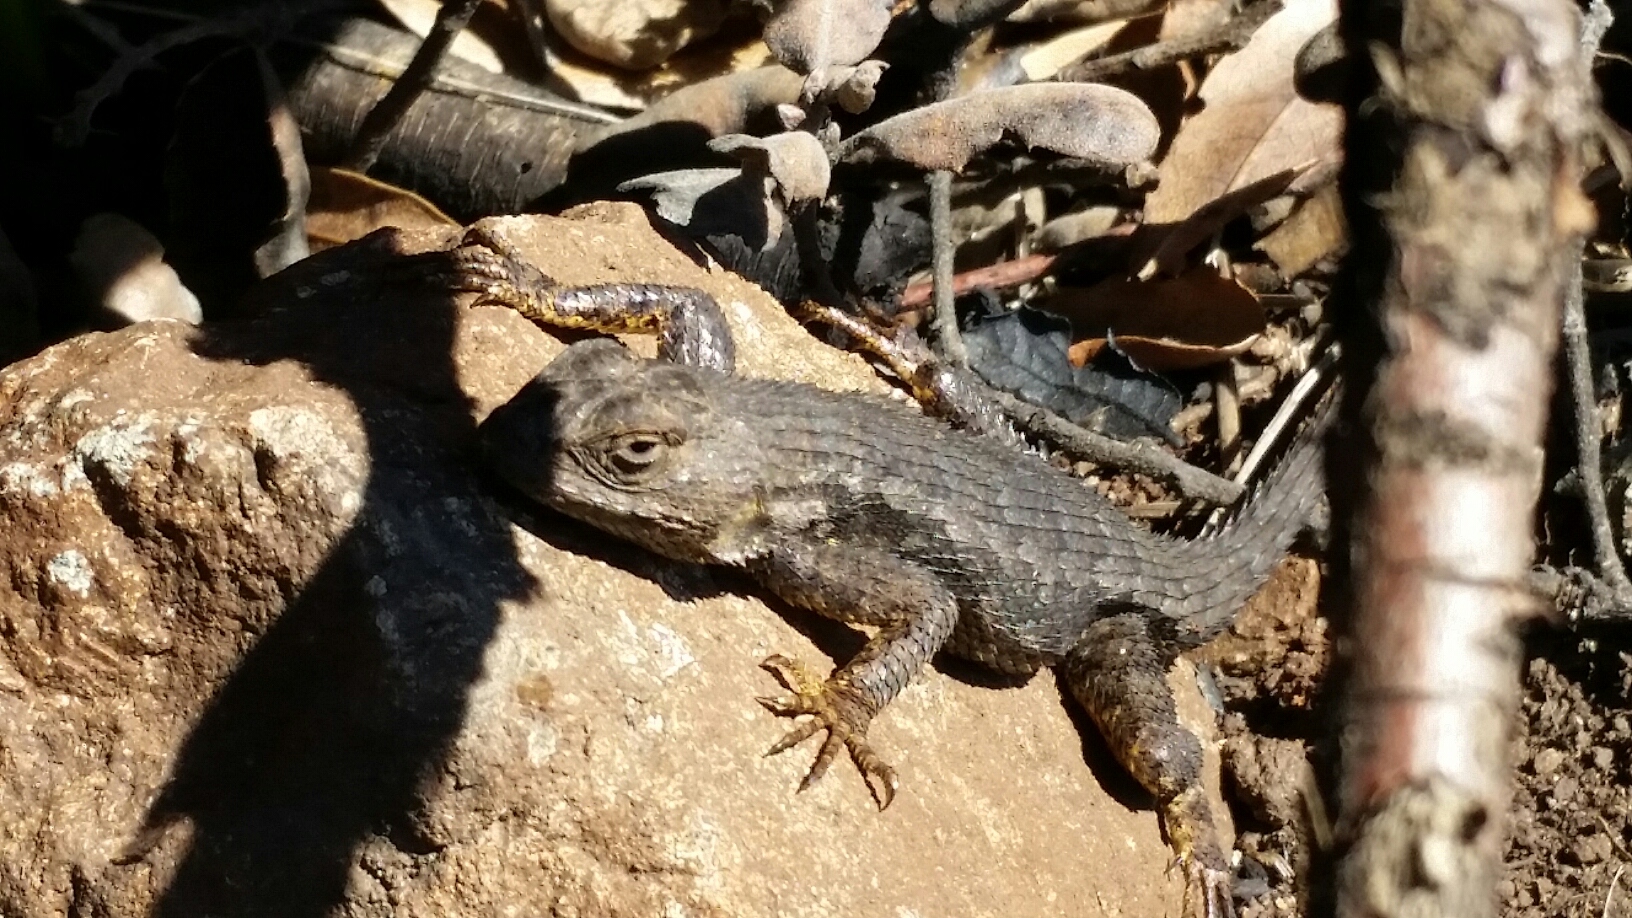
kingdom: Animalia
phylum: Chordata
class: Squamata
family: Phrynosomatidae
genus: Sceloporus
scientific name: Sceloporus occidentalis
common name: Western fence lizard
